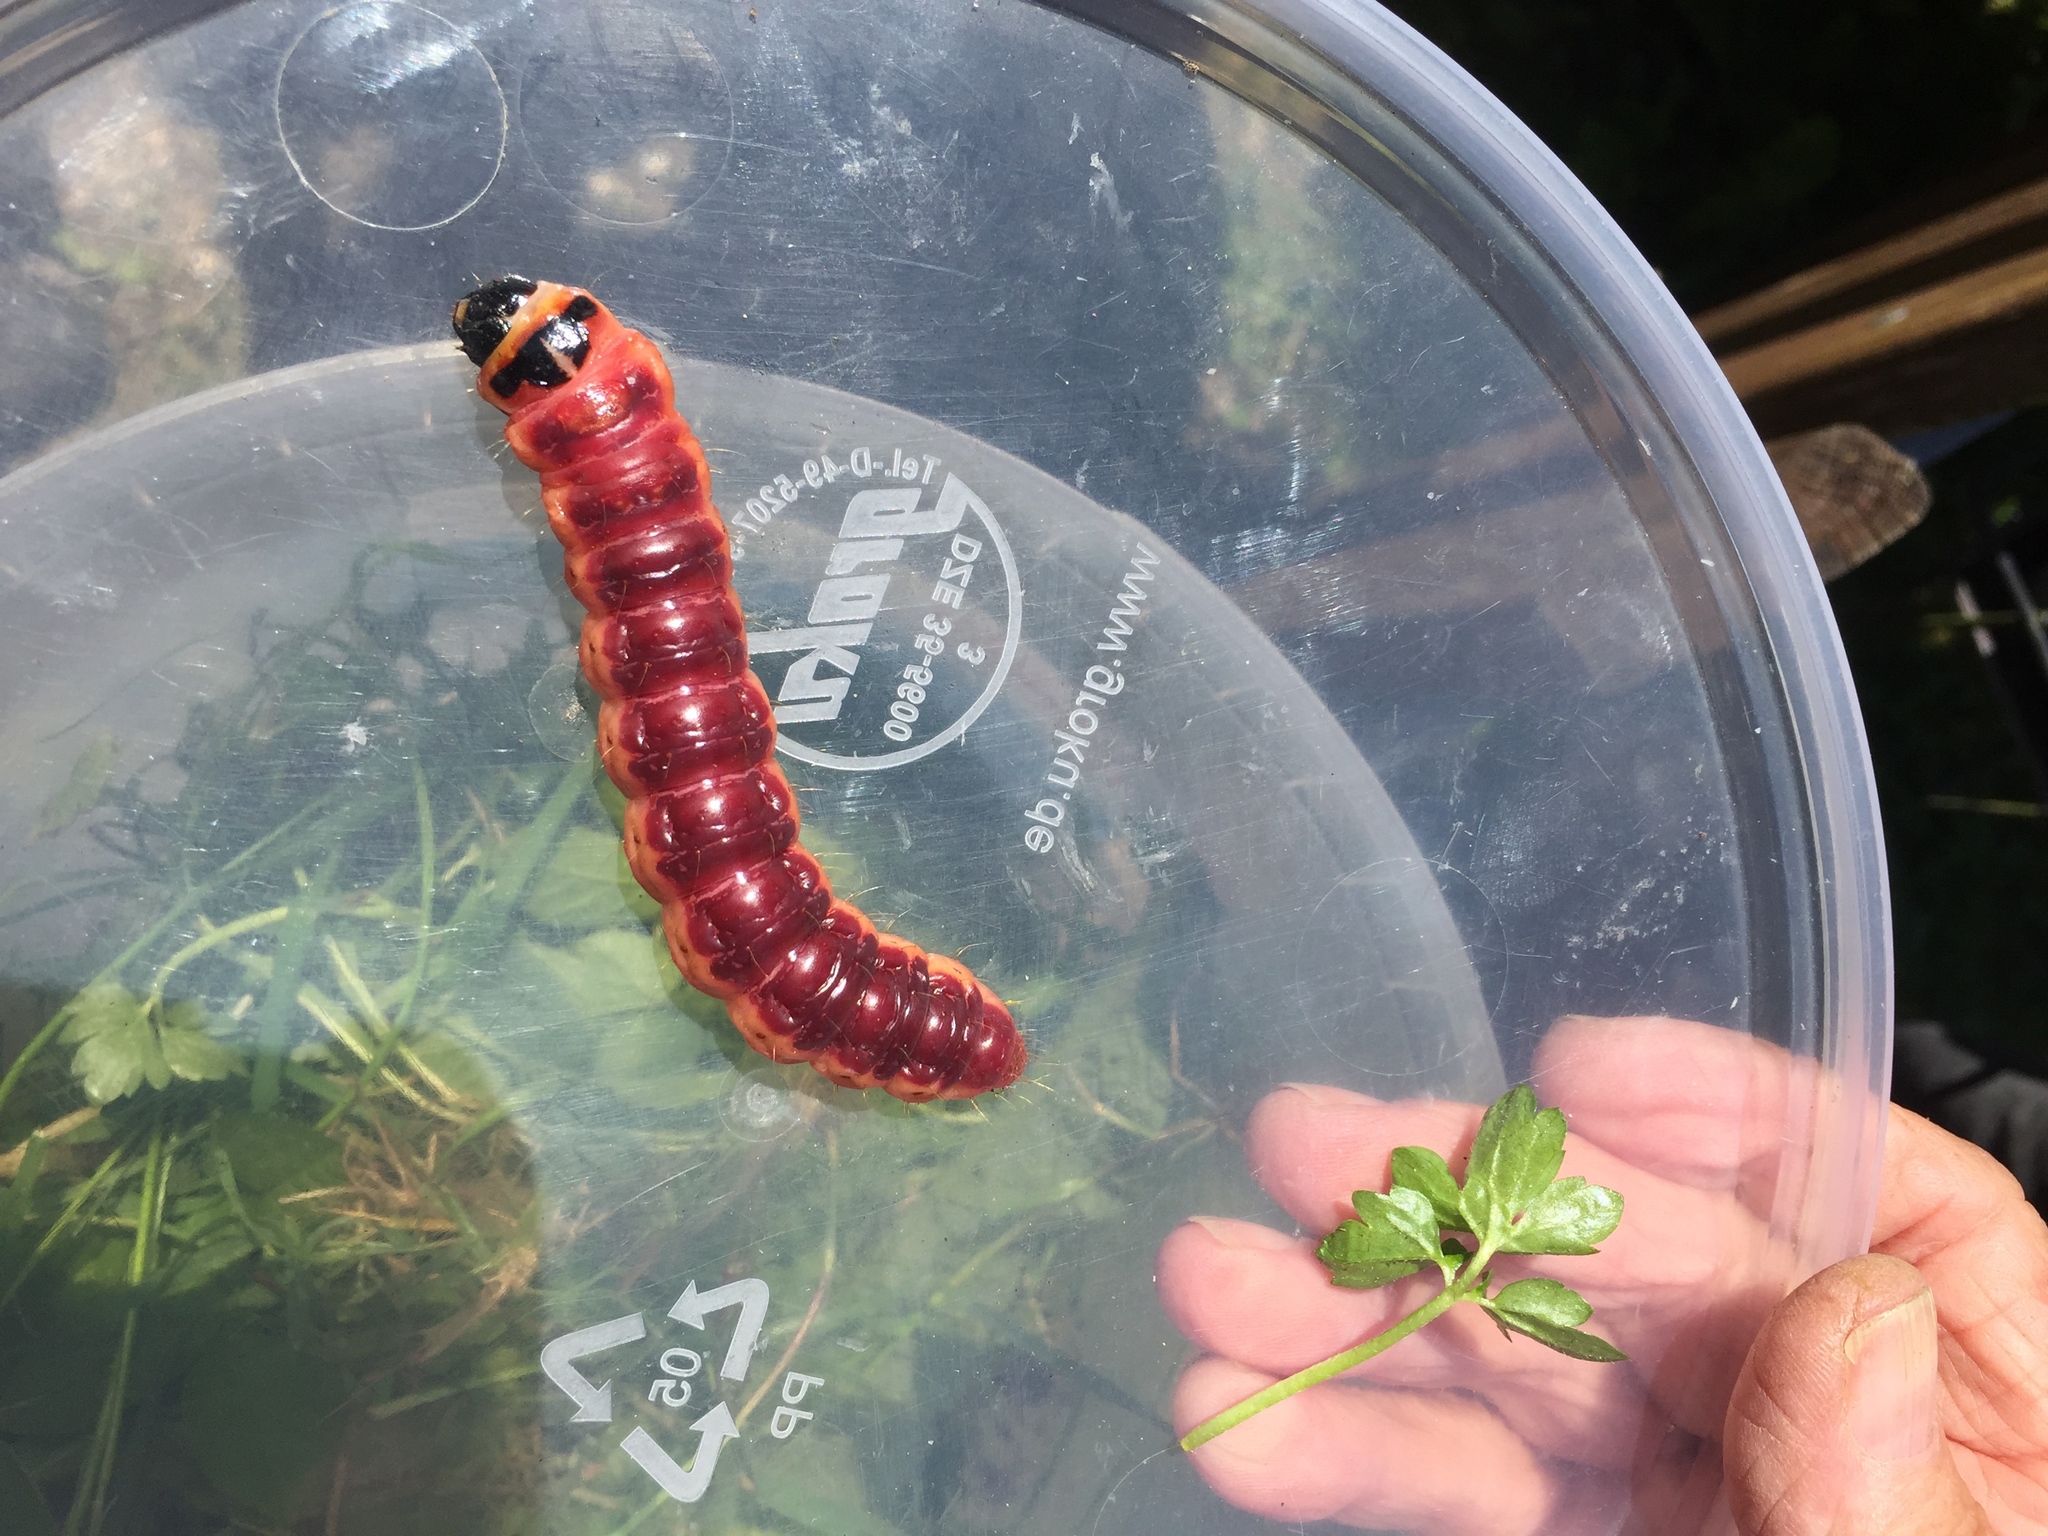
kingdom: Animalia
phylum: Arthropoda
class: Insecta
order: Lepidoptera
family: Cossidae
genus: Cossus
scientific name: Cossus cossus
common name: Goat moth
